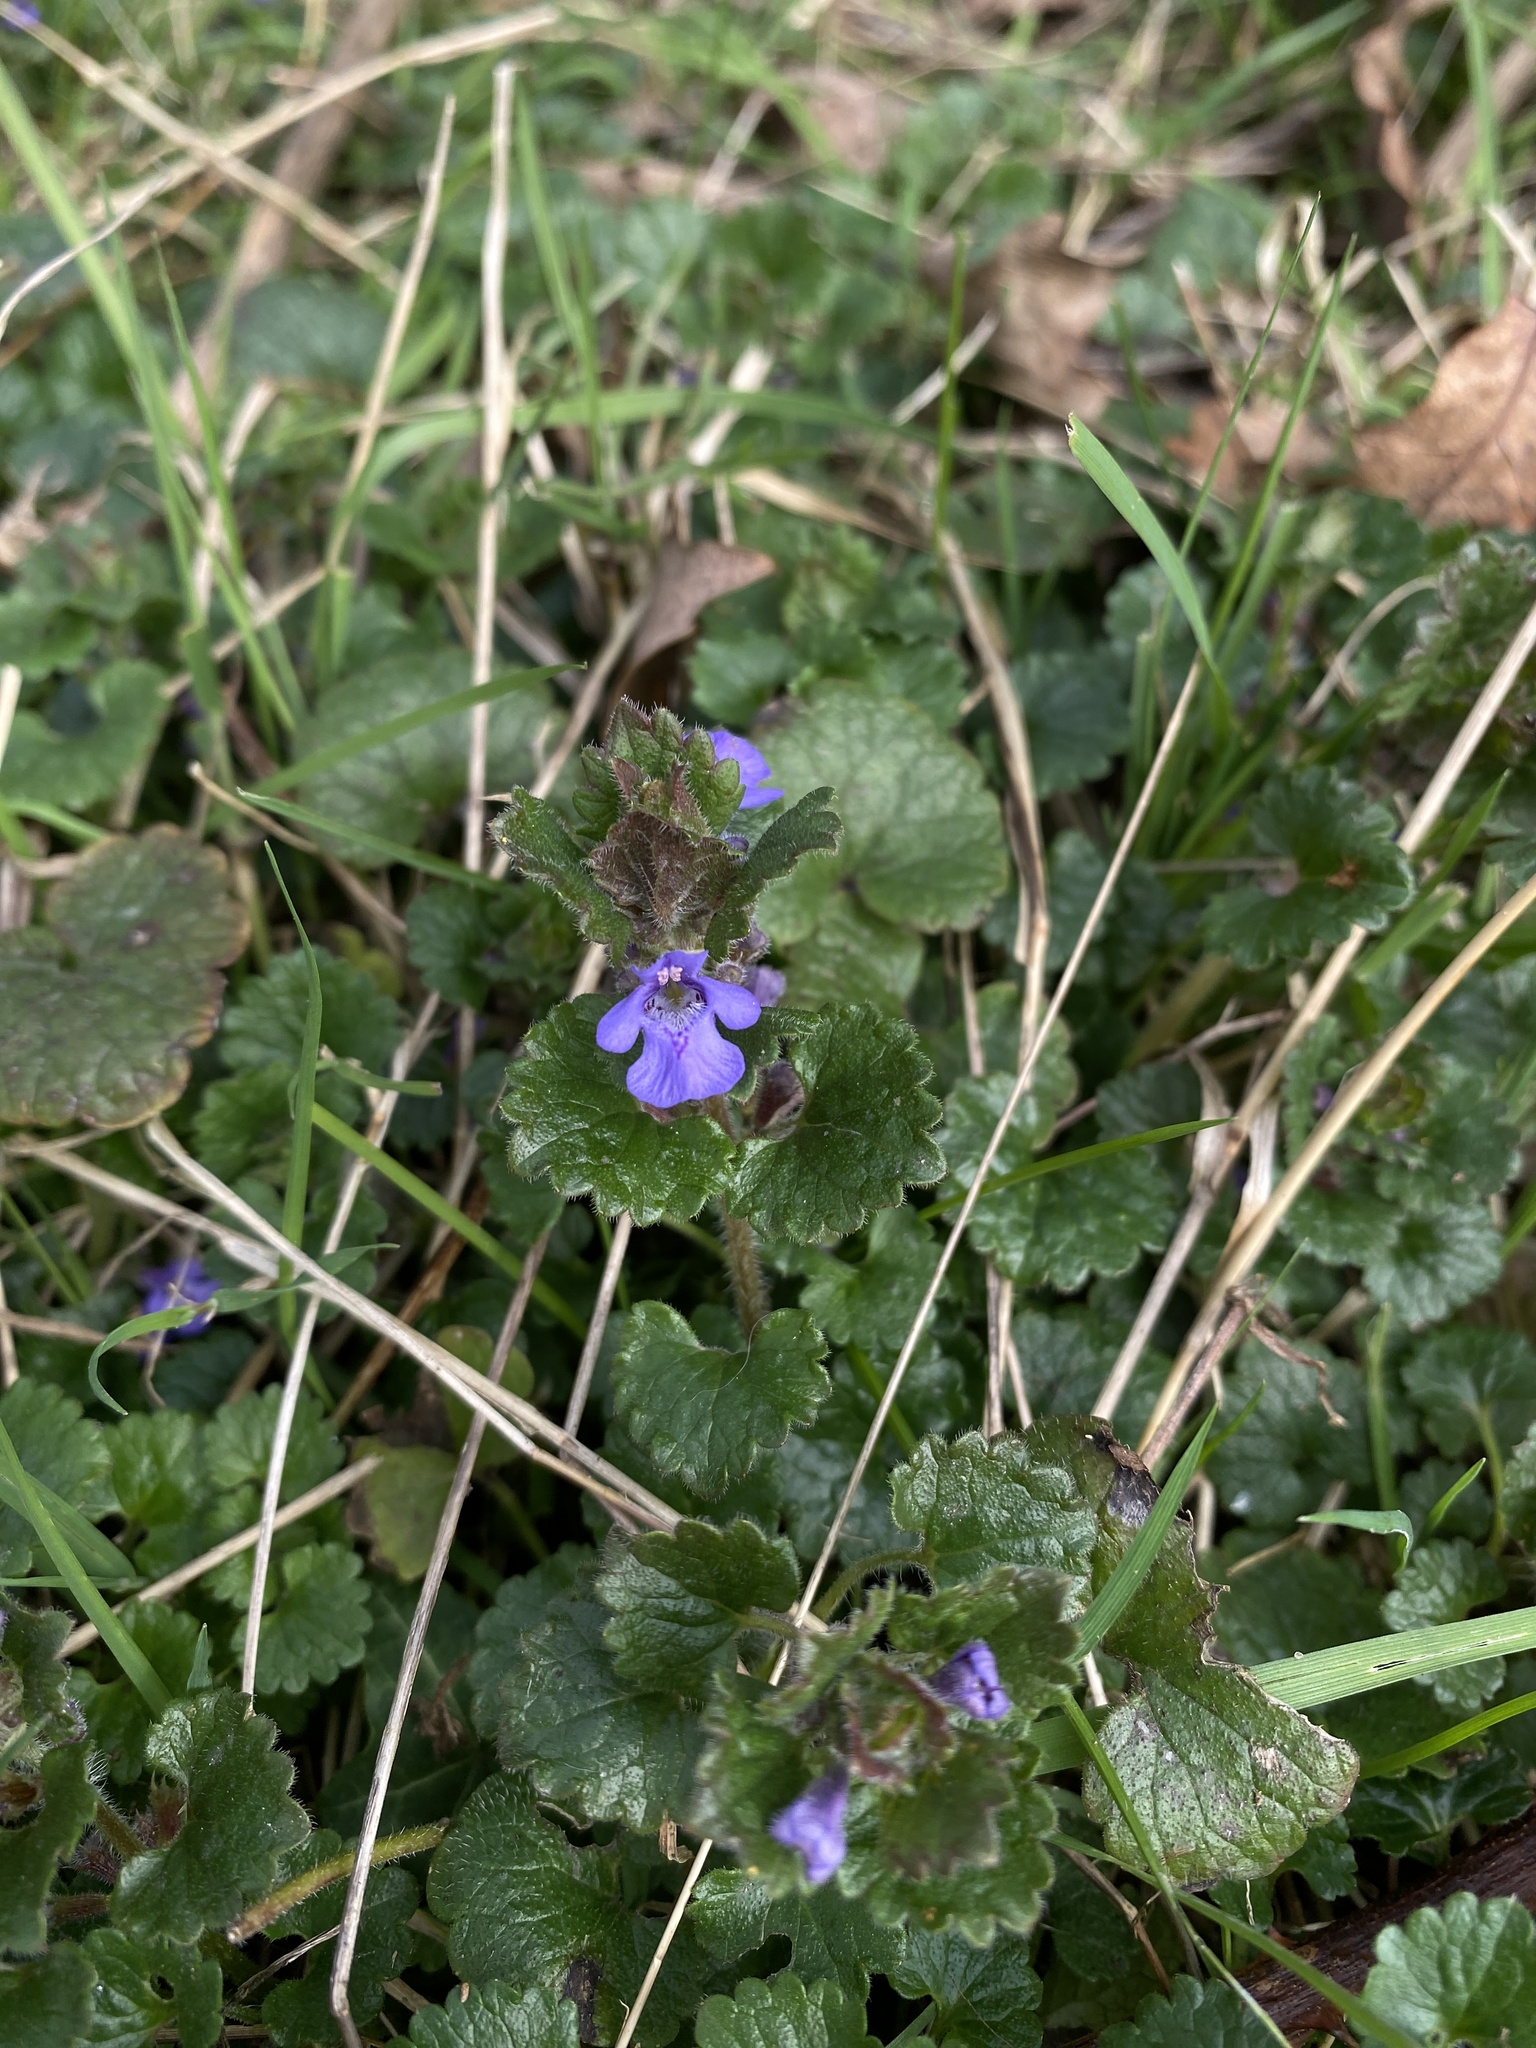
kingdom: Plantae
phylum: Tracheophyta
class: Magnoliopsida
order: Lamiales
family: Lamiaceae
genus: Glechoma
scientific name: Glechoma hederacea
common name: Ground ivy
